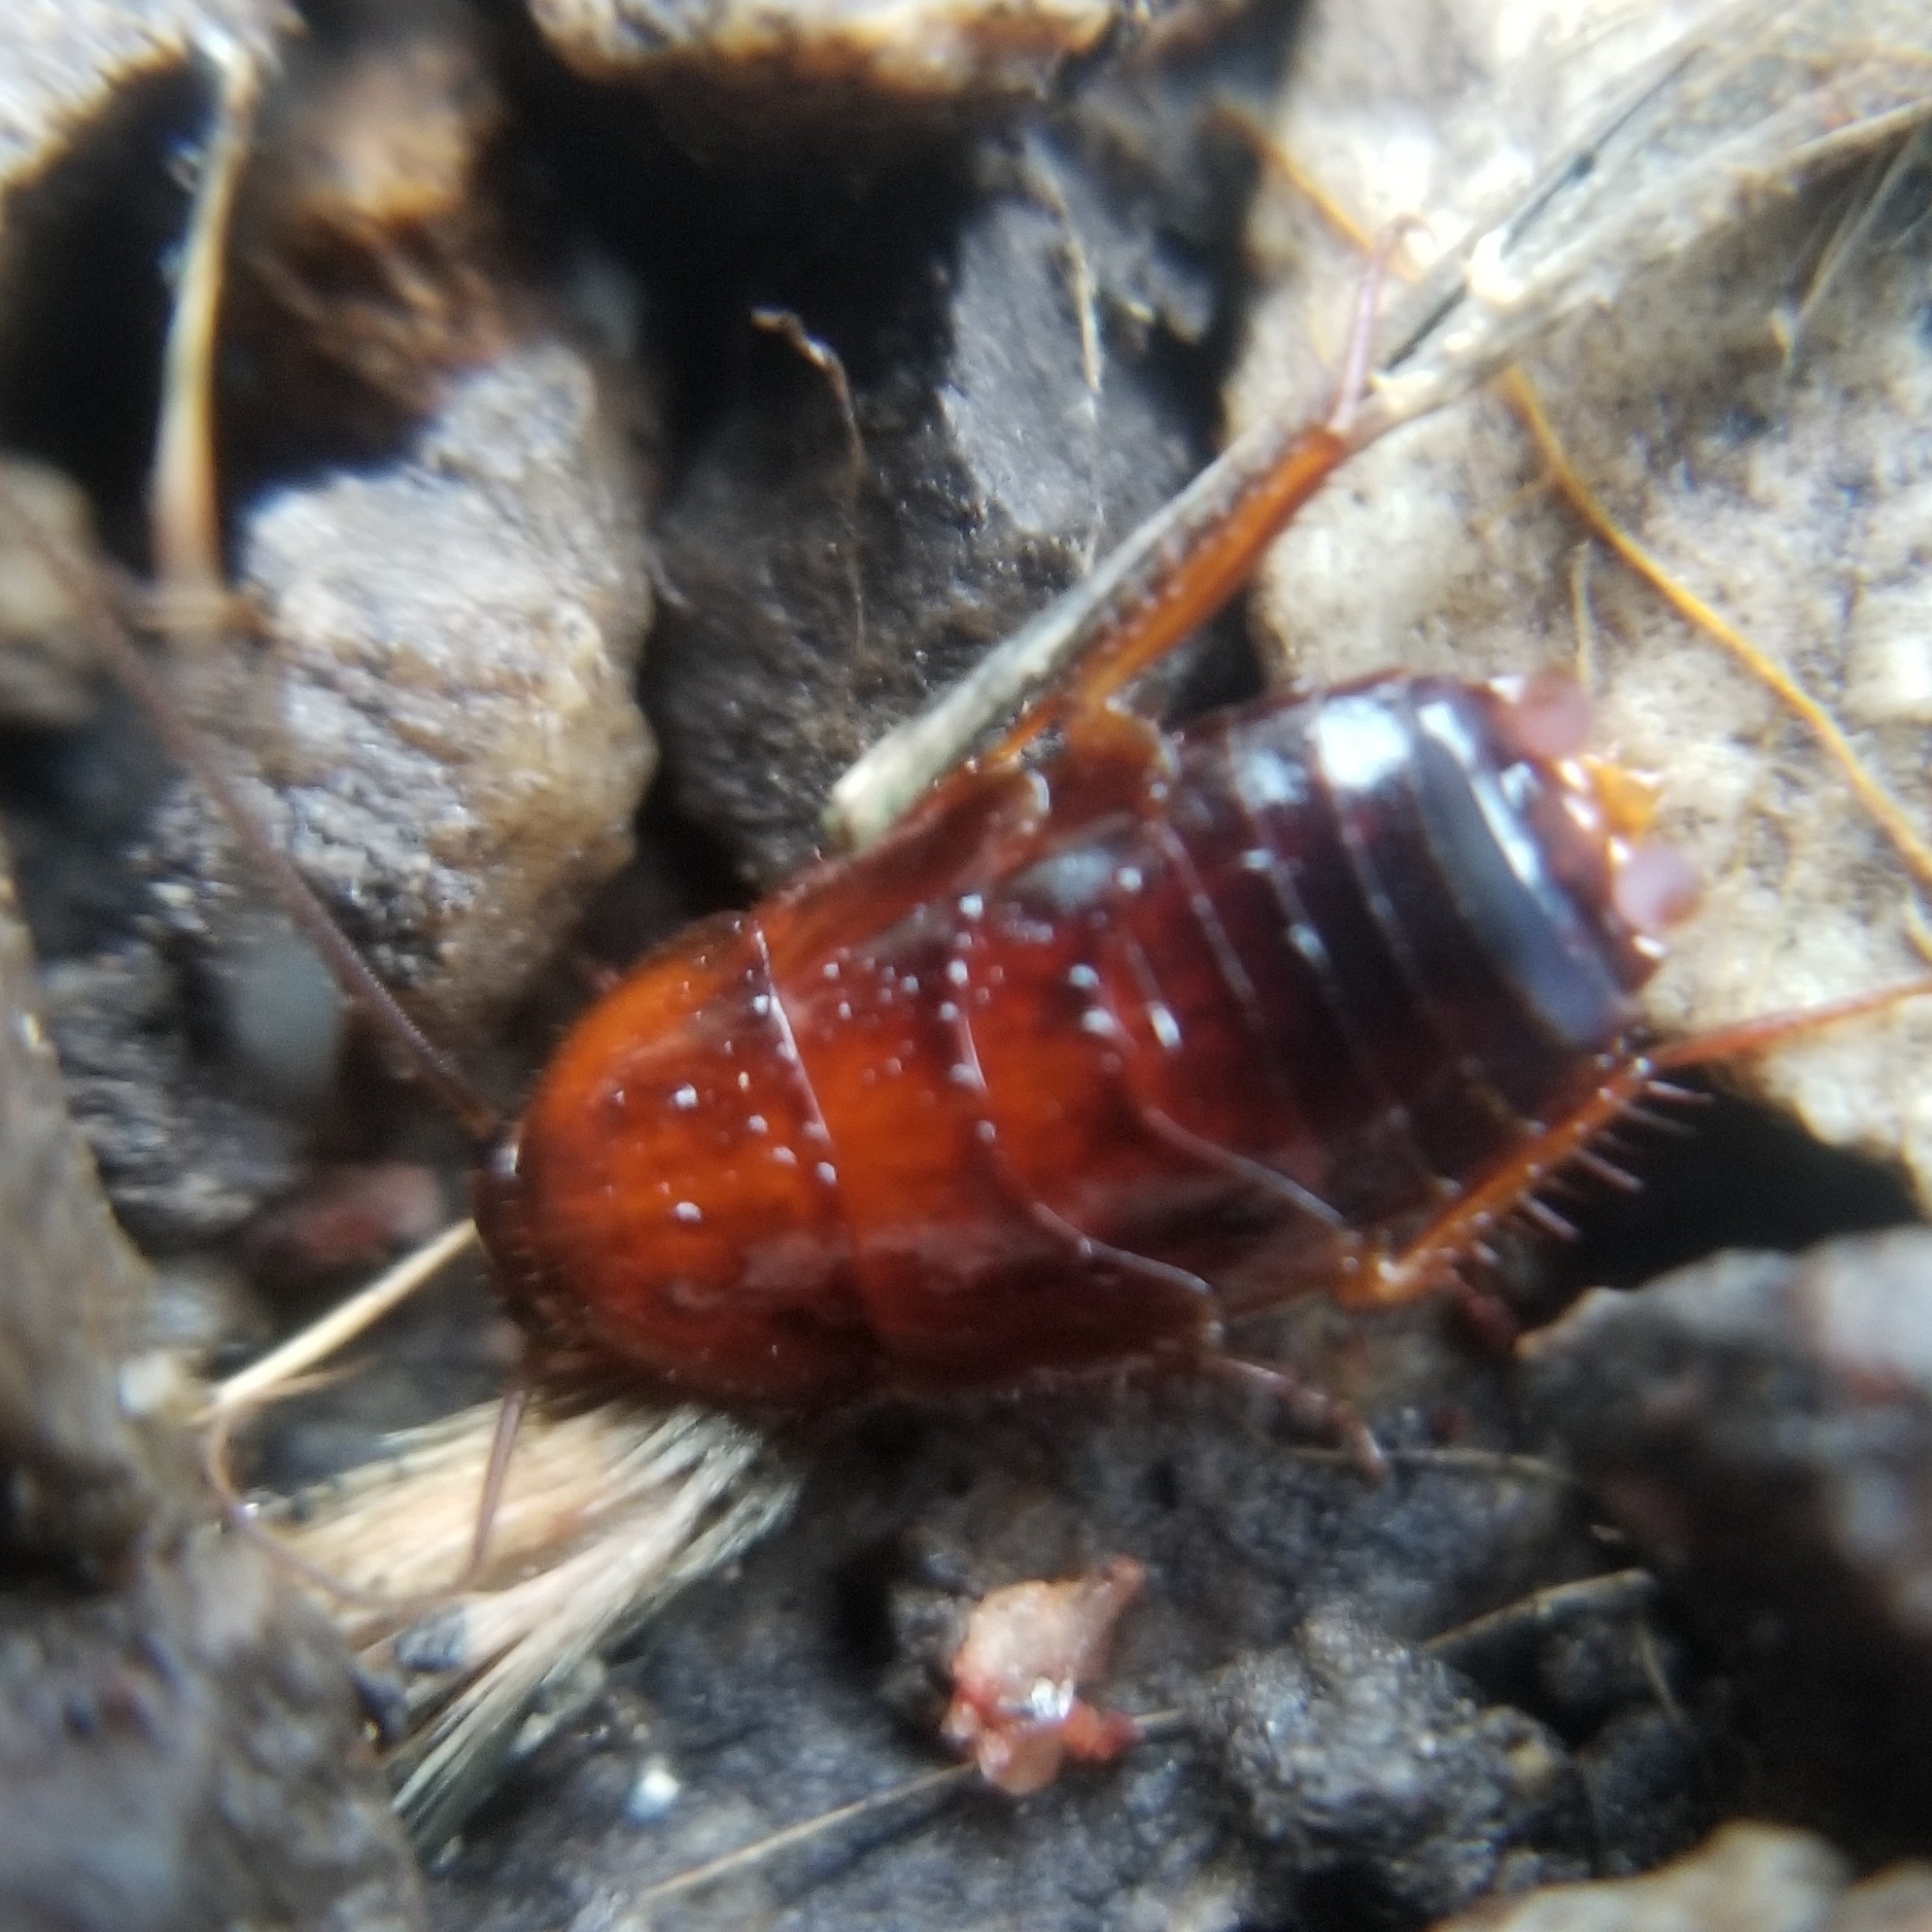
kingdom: Animalia
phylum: Arthropoda
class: Insecta
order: Blattodea
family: Ectobiidae
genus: Parcoblatta
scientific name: Parcoblatta americana
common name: Western wood cockroach
